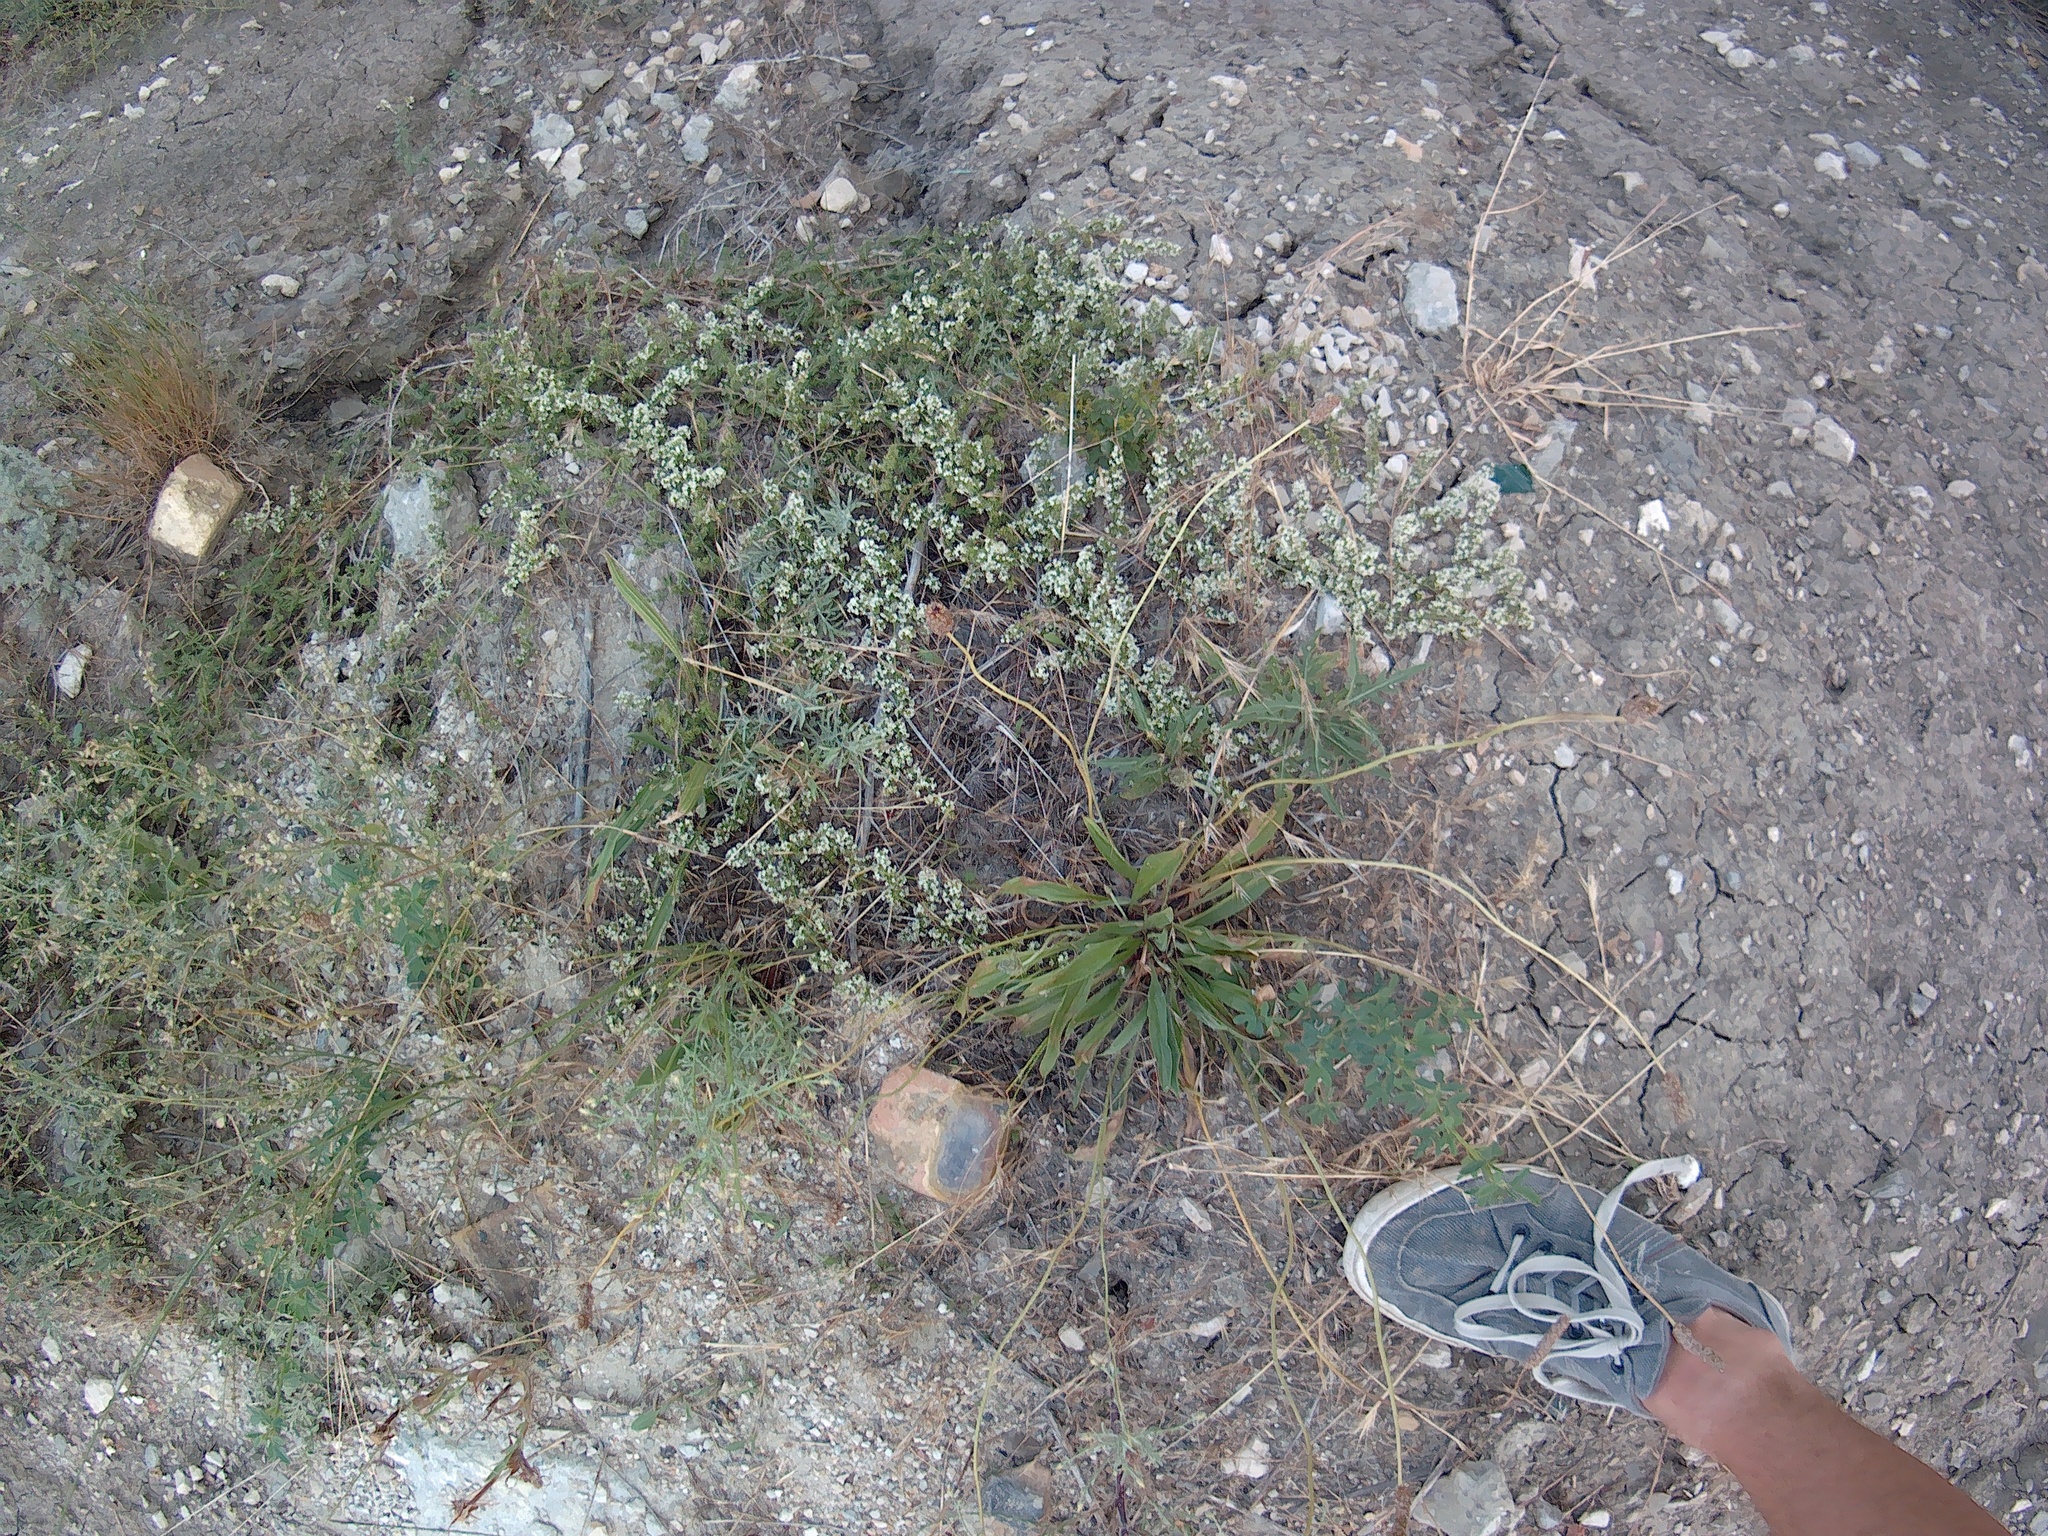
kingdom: Plantae
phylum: Tracheophyta
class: Magnoliopsida
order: Gentianales
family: Rubiaceae
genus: Galium
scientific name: Galium humifusum
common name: Spreading bedstraw
